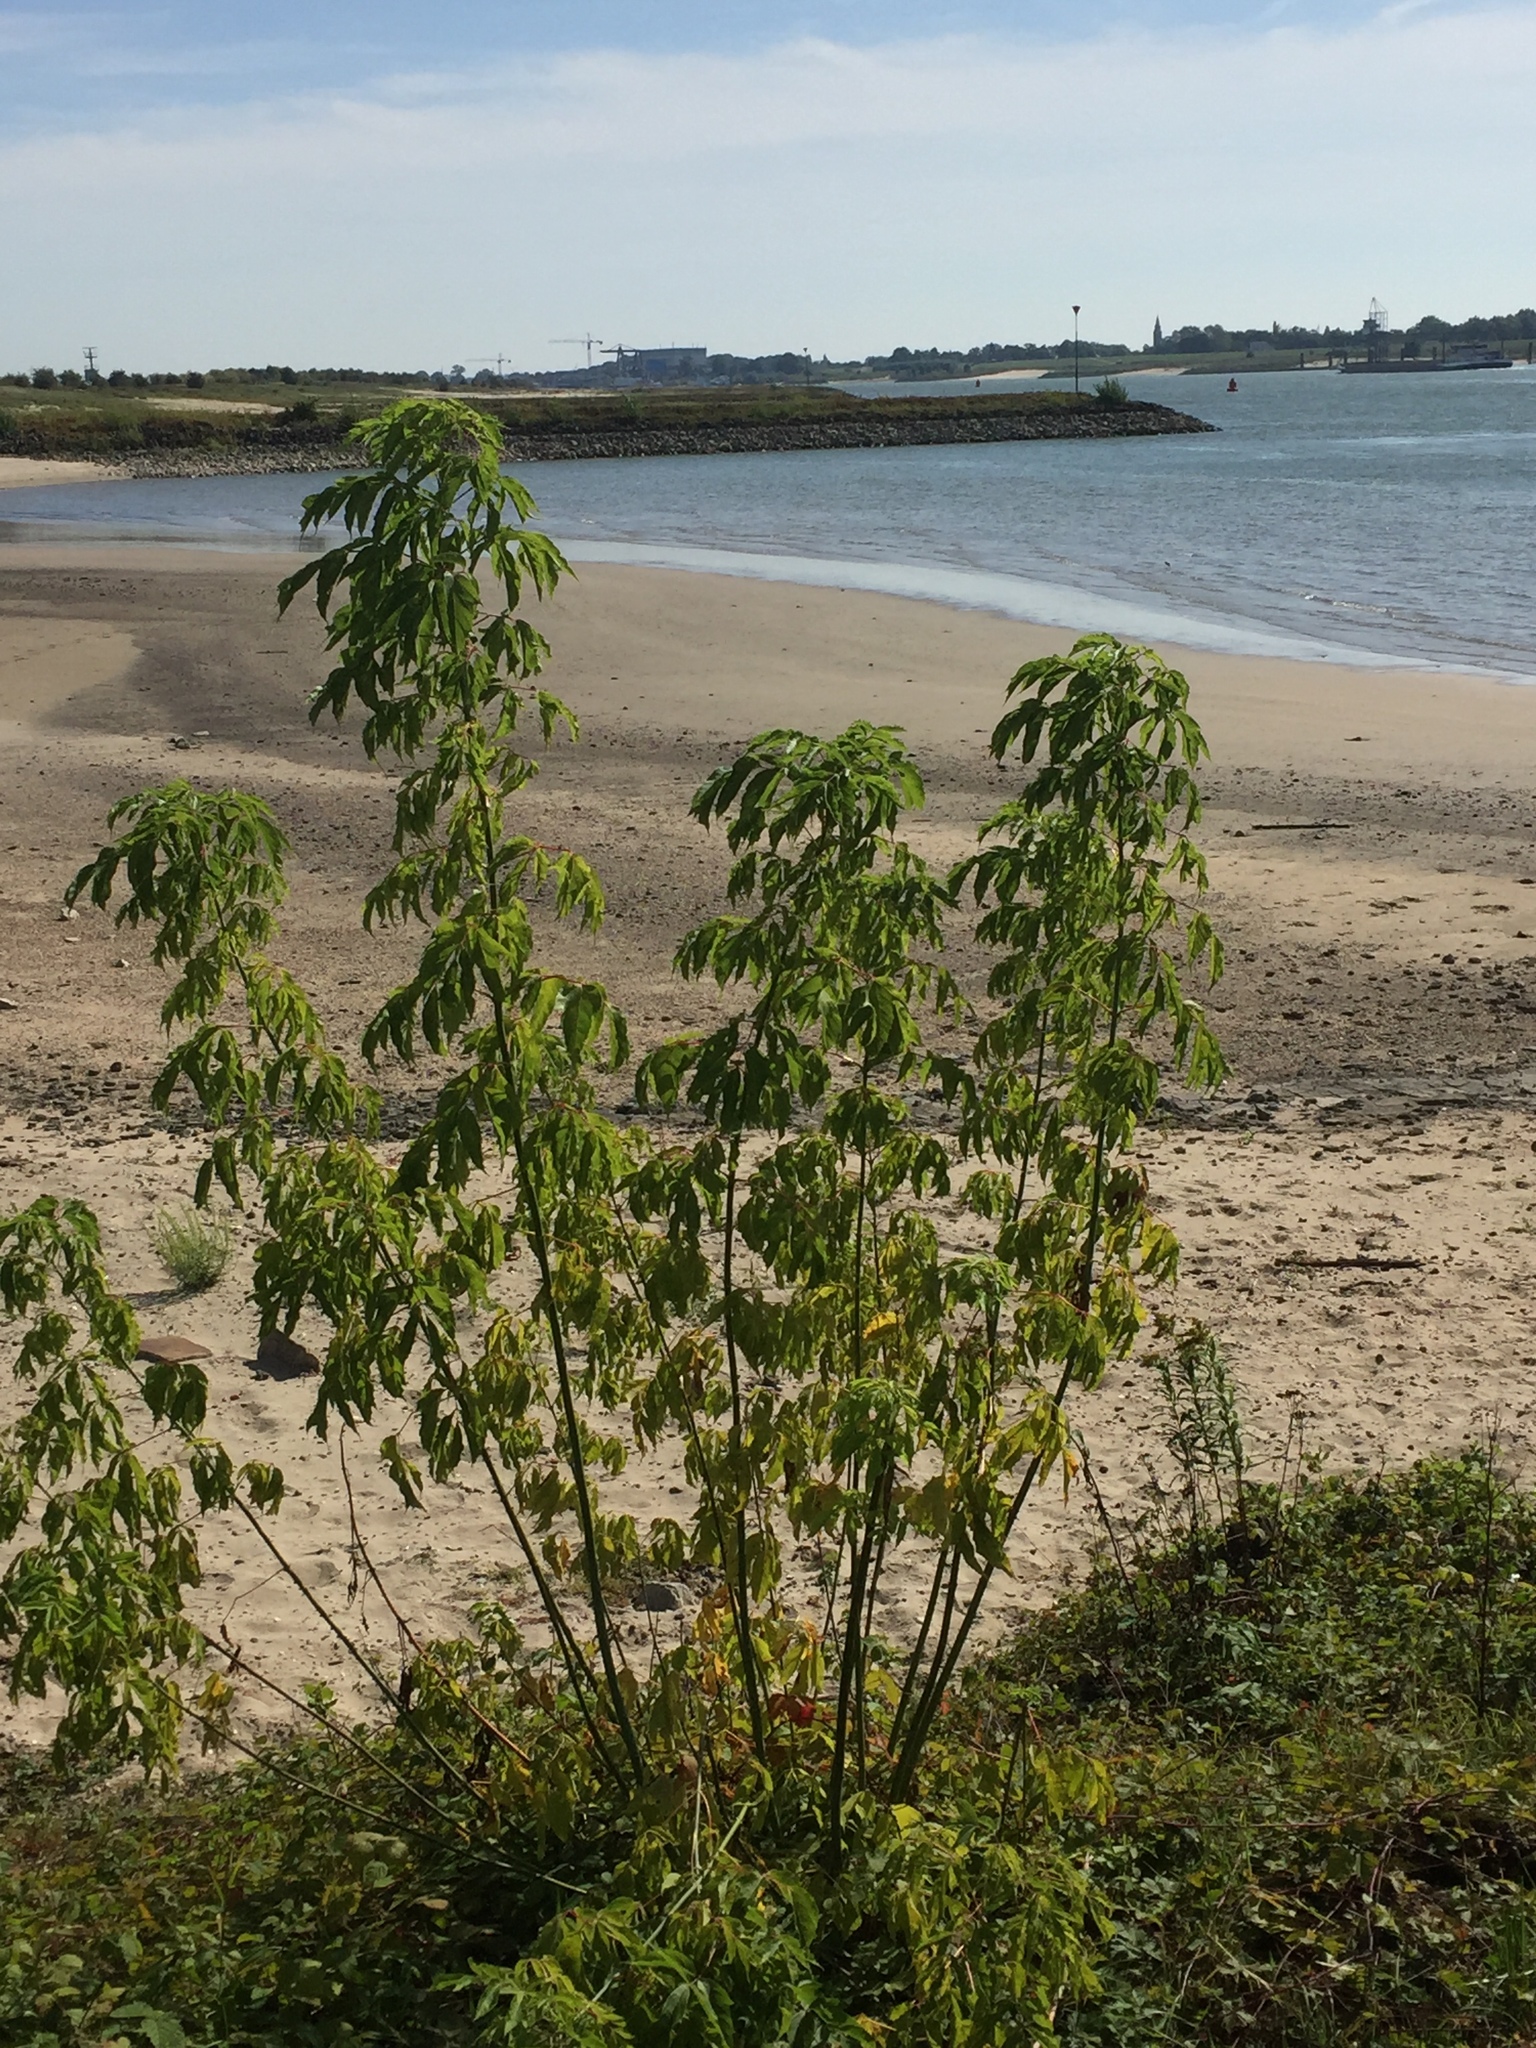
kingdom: Plantae
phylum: Tracheophyta
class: Magnoliopsida
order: Sapindales
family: Sapindaceae
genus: Acer
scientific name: Acer negundo
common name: Ashleaf maple
